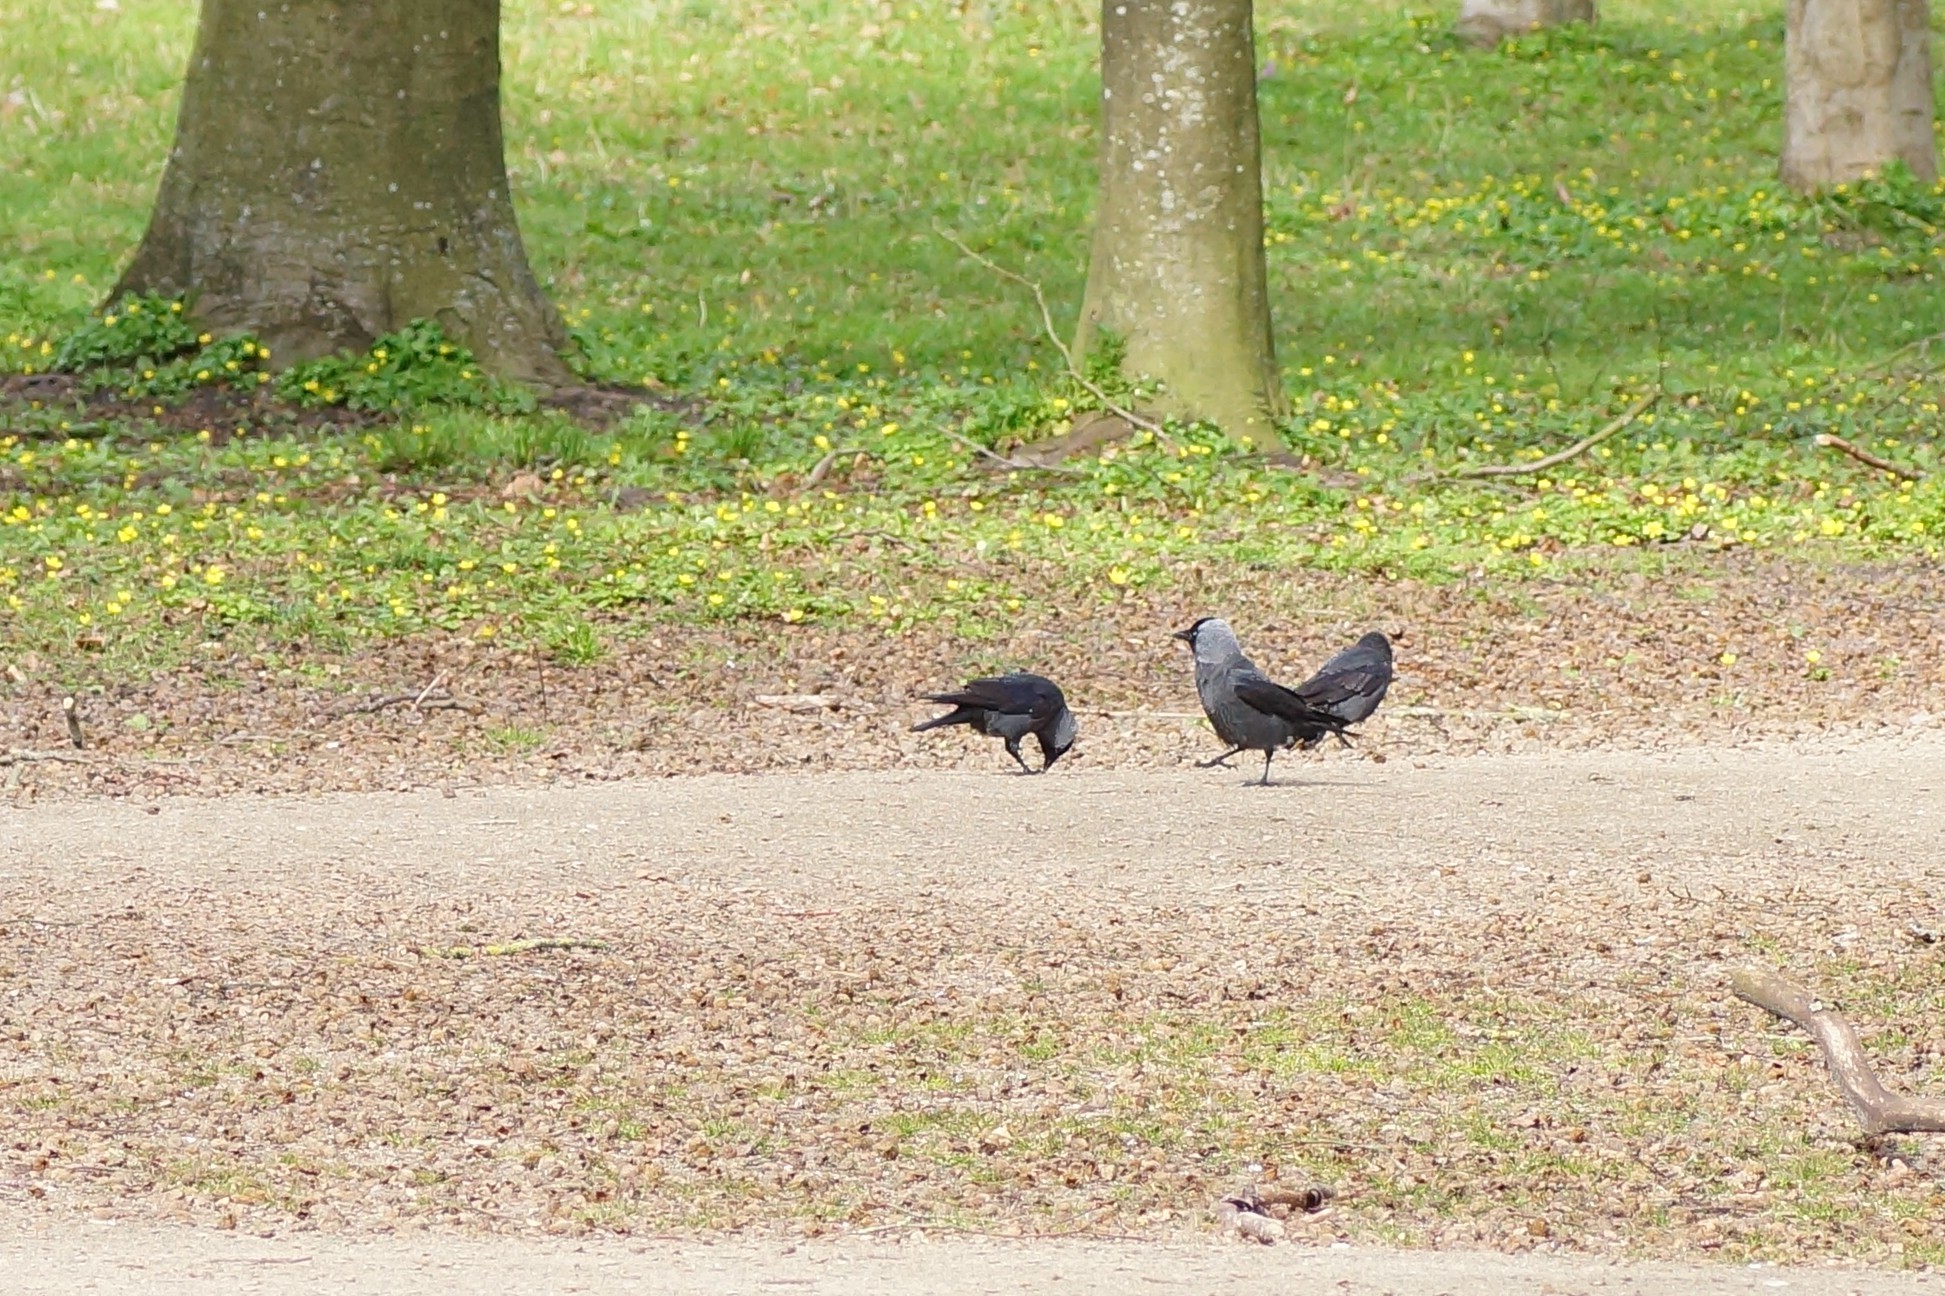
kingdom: Animalia
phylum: Chordata
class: Aves
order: Passeriformes
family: Corvidae
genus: Coloeus
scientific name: Coloeus monedula
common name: Western jackdaw
